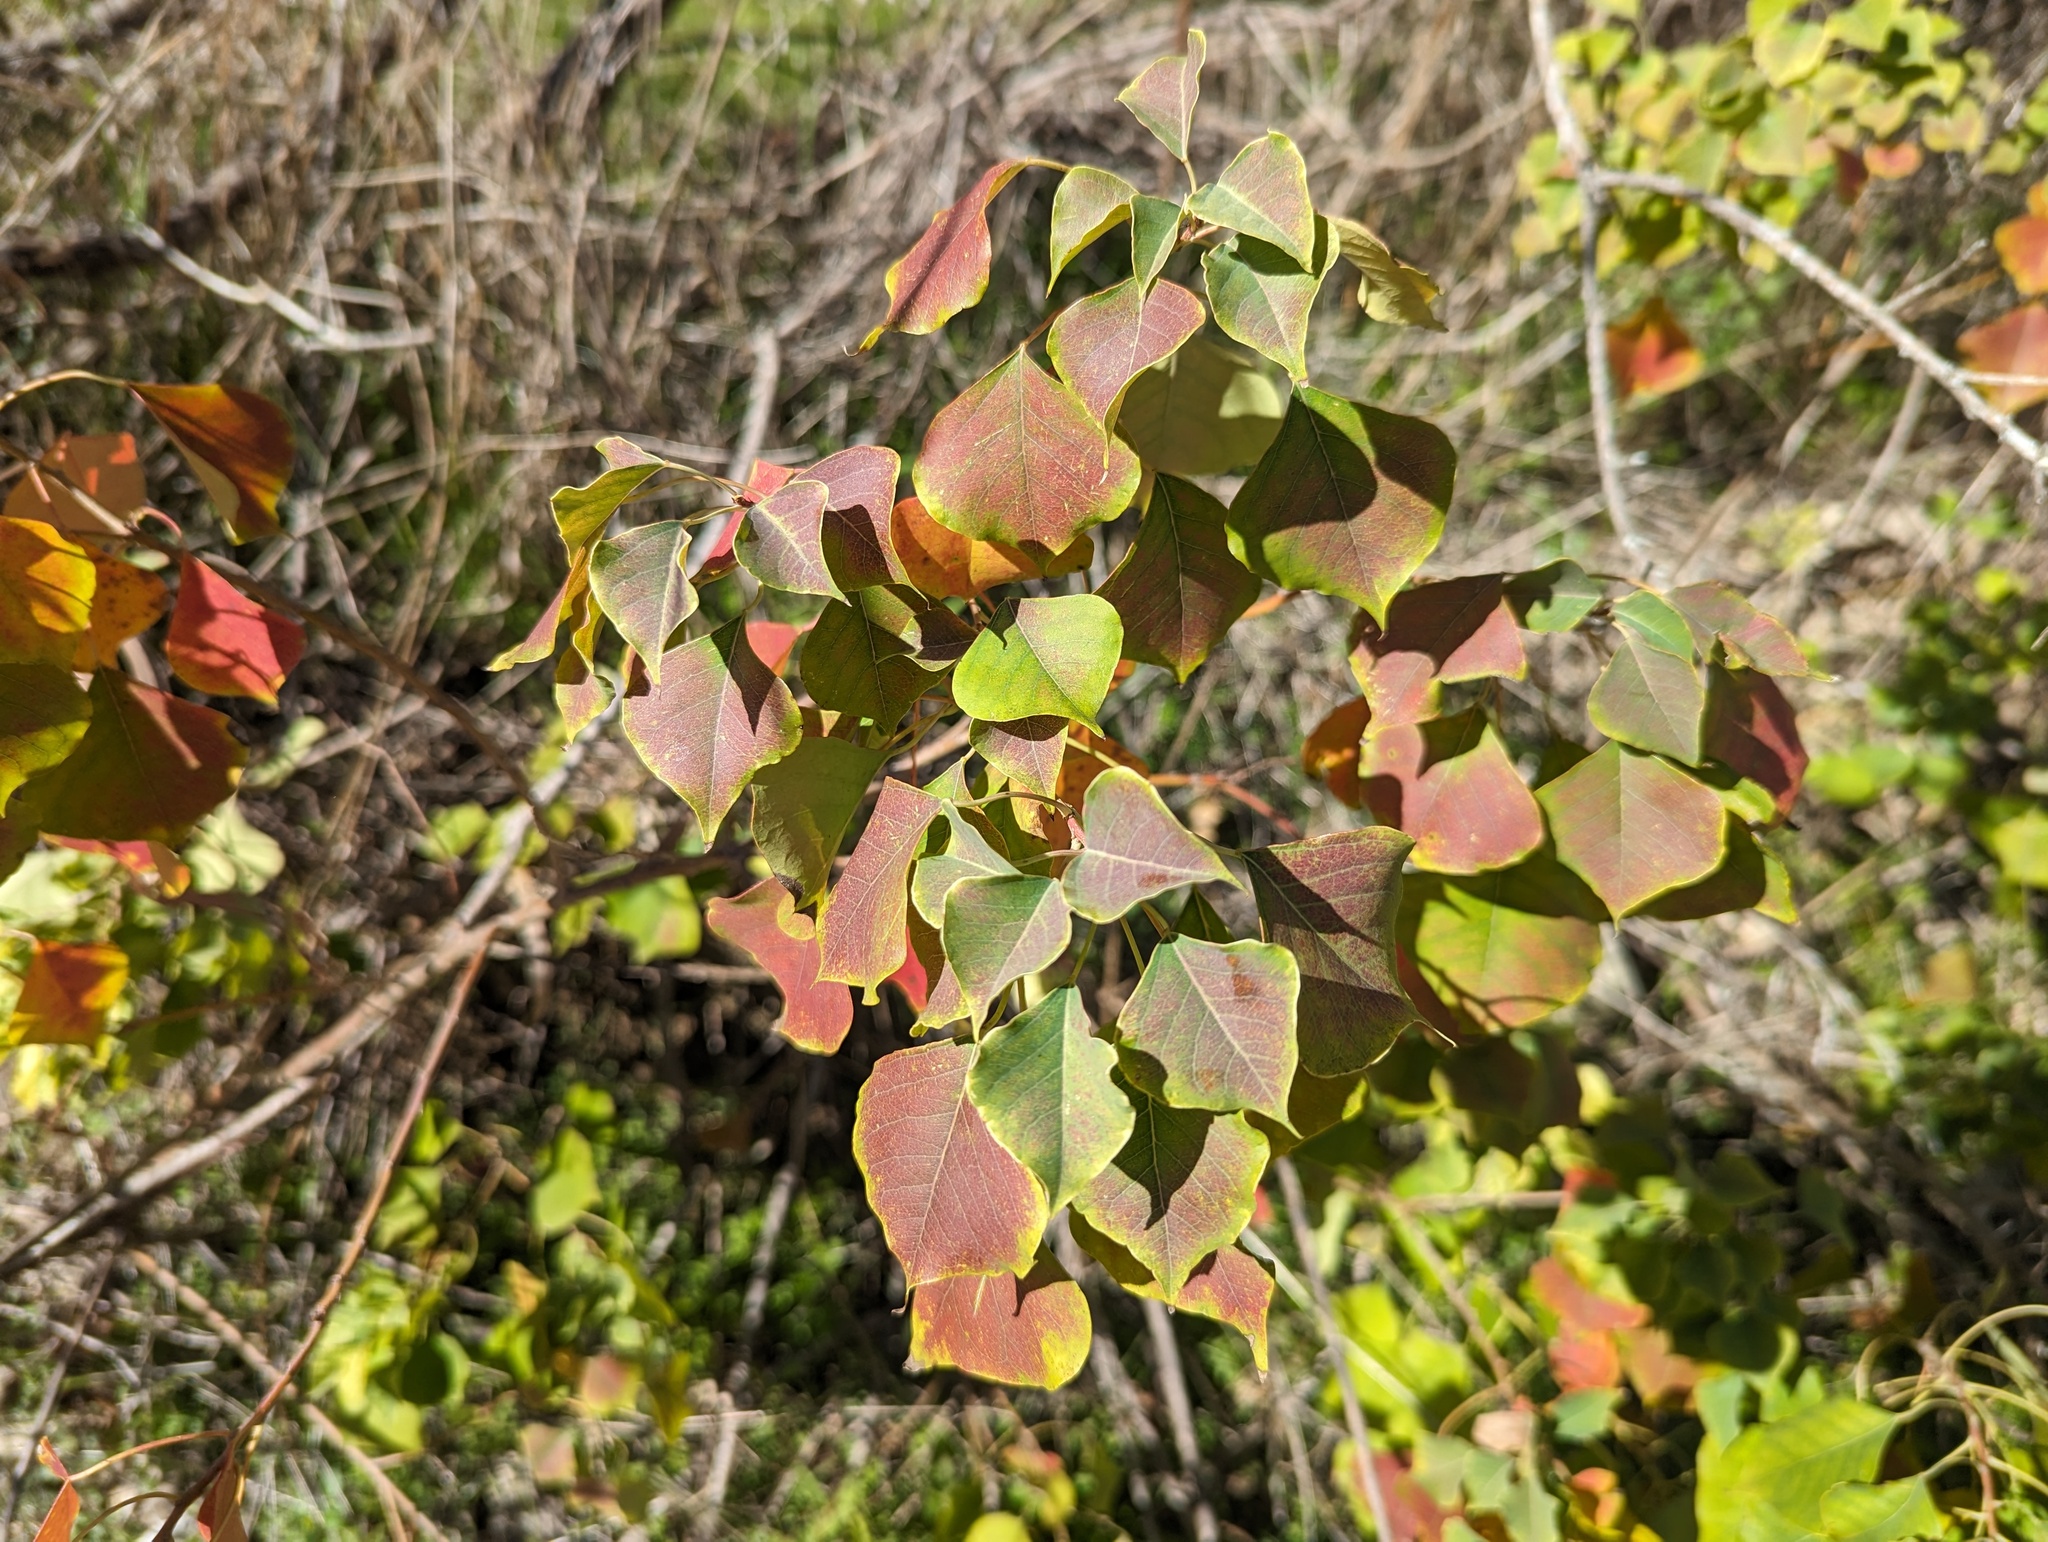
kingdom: Plantae
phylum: Tracheophyta
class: Magnoliopsida
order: Malpighiales
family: Euphorbiaceae
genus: Triadica
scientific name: Triadica sebifera
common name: Chinese tallow
